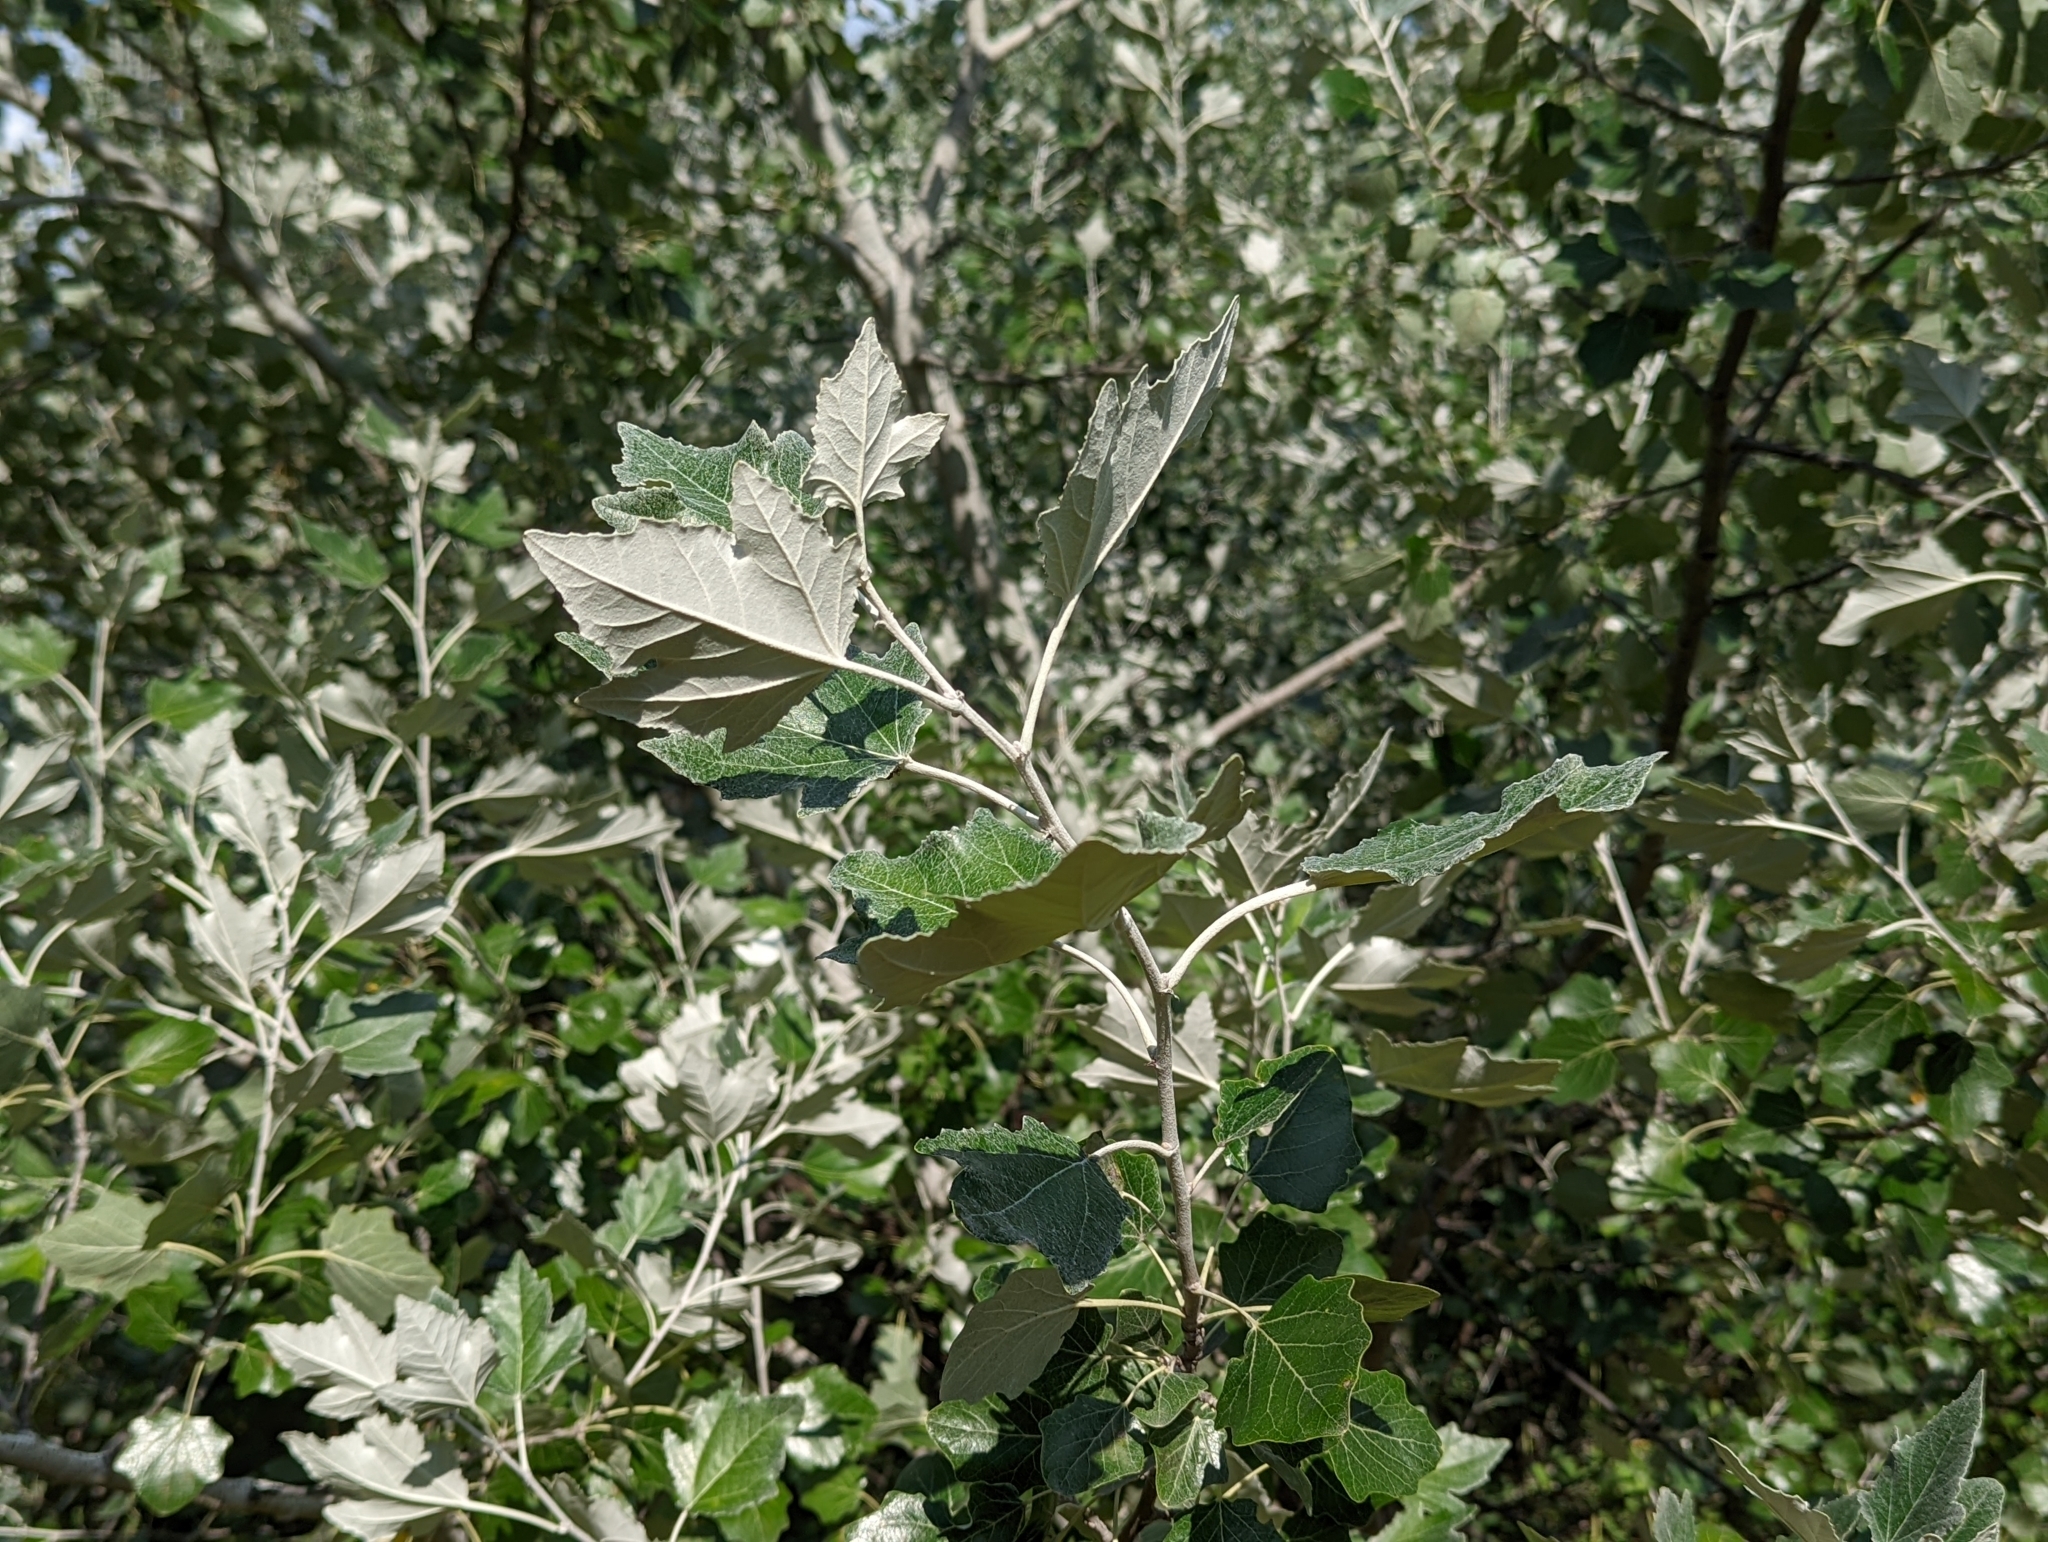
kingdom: Plantae
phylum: Tracheophyta
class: Magnoliopsida
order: Malpighiales
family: Salicaceae
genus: Populus
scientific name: Populus alba
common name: White poplar
